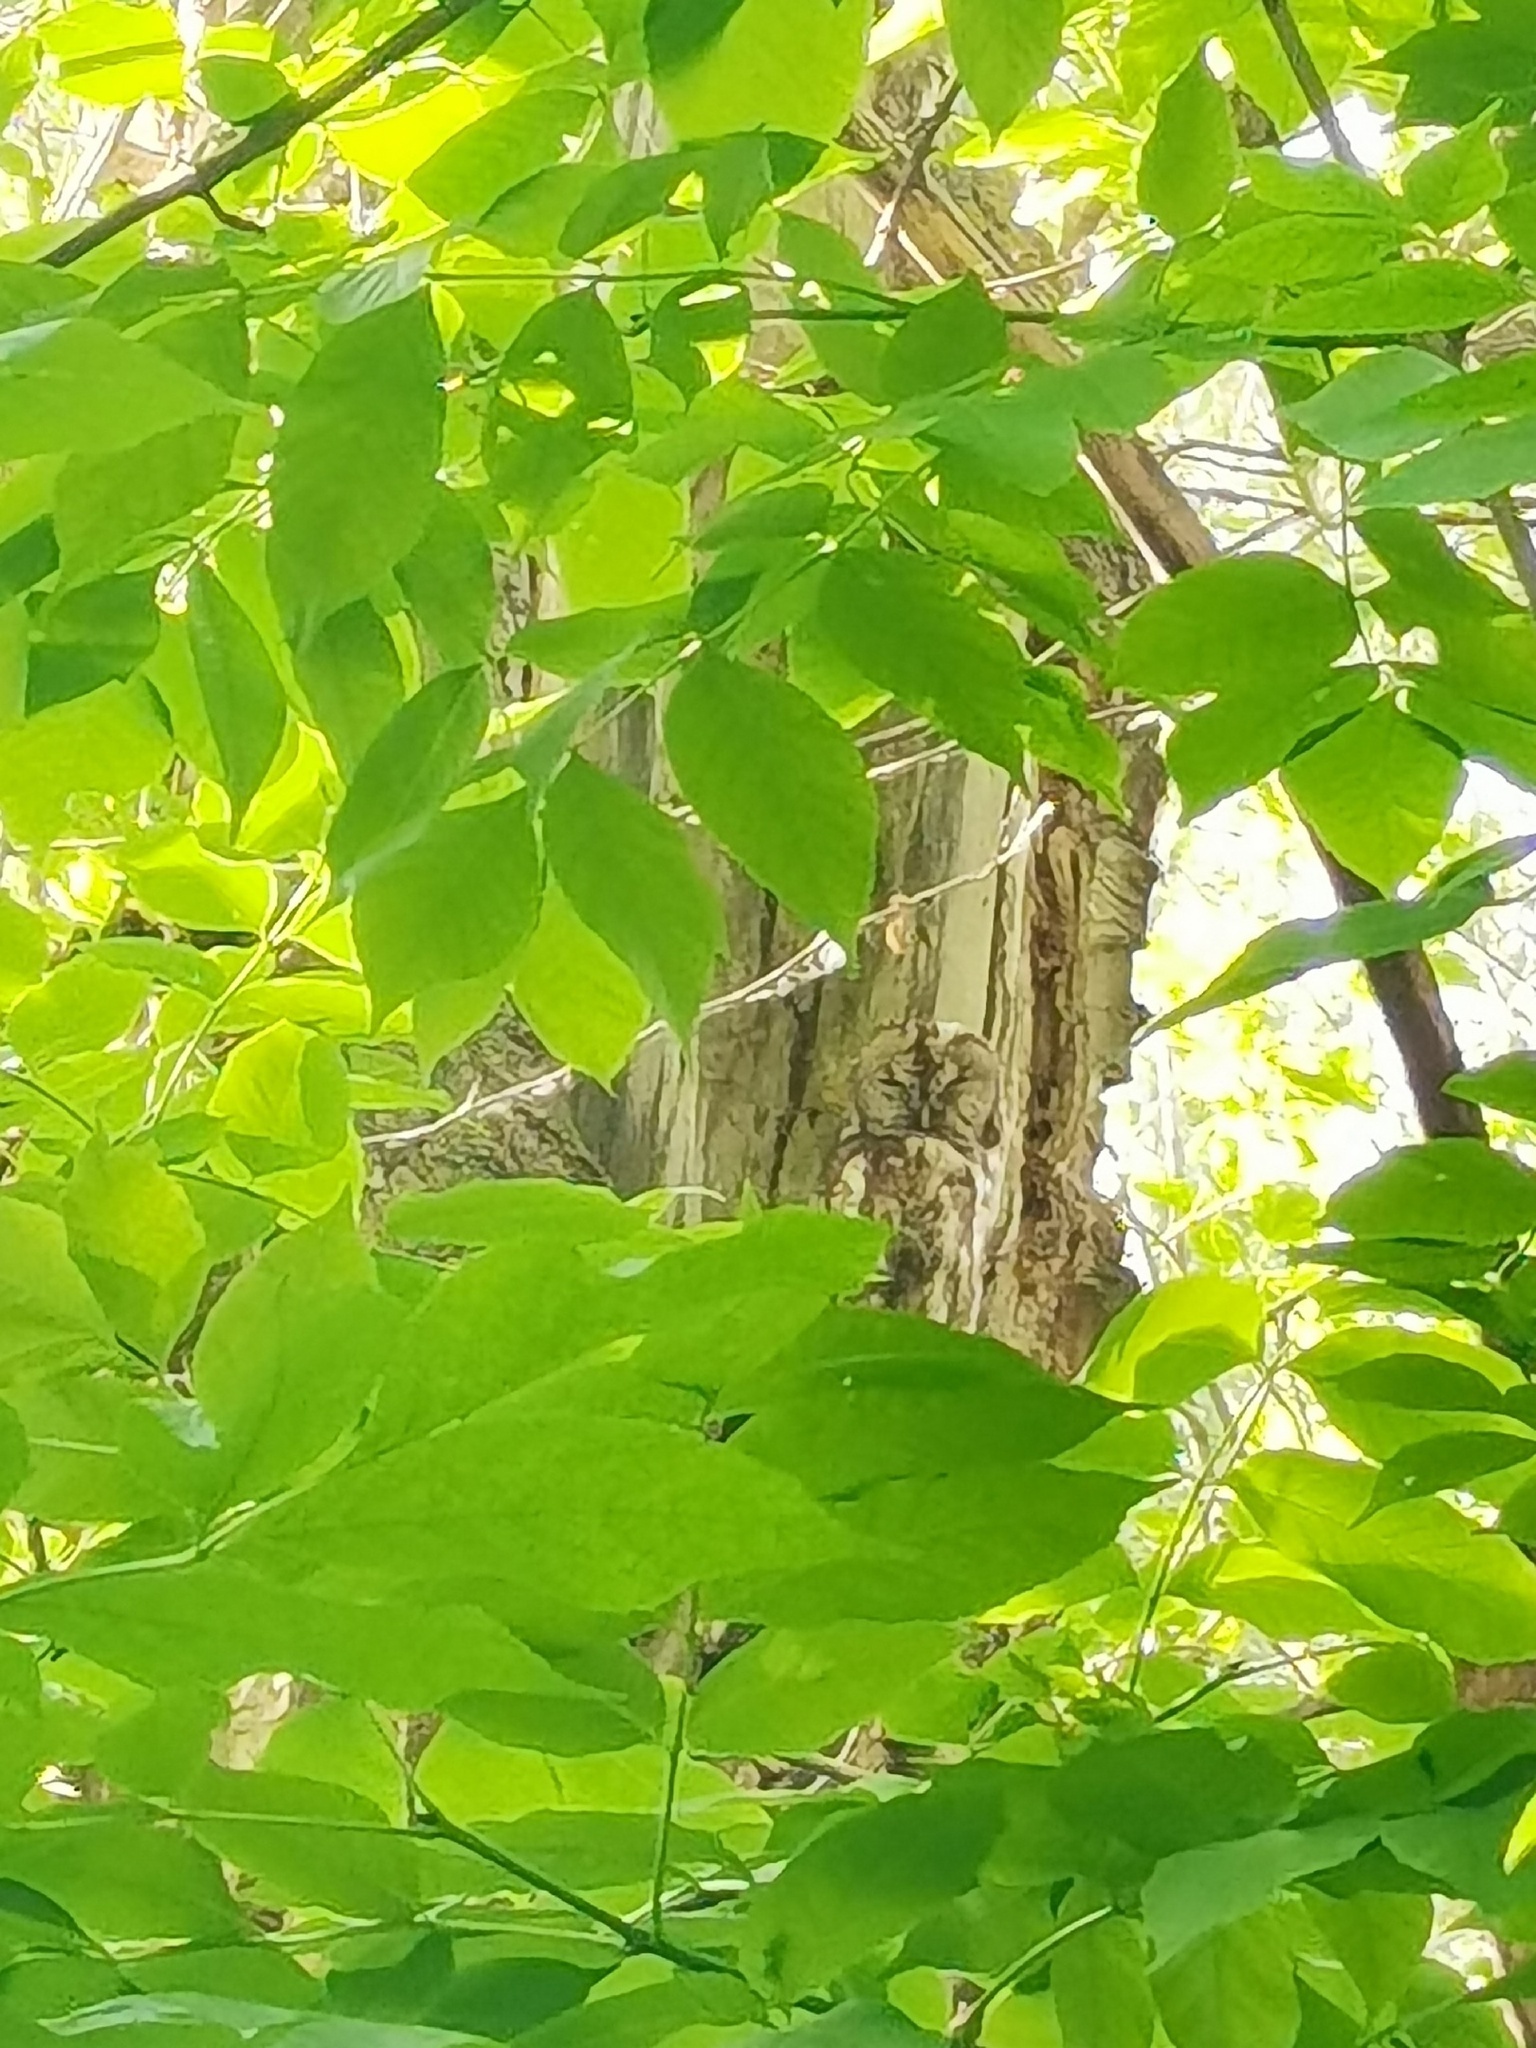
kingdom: Animalia
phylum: Chordata
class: Aves
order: Strigiformes
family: Strigidae
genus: Strix
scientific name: Strix aluco
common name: Tawny owl
